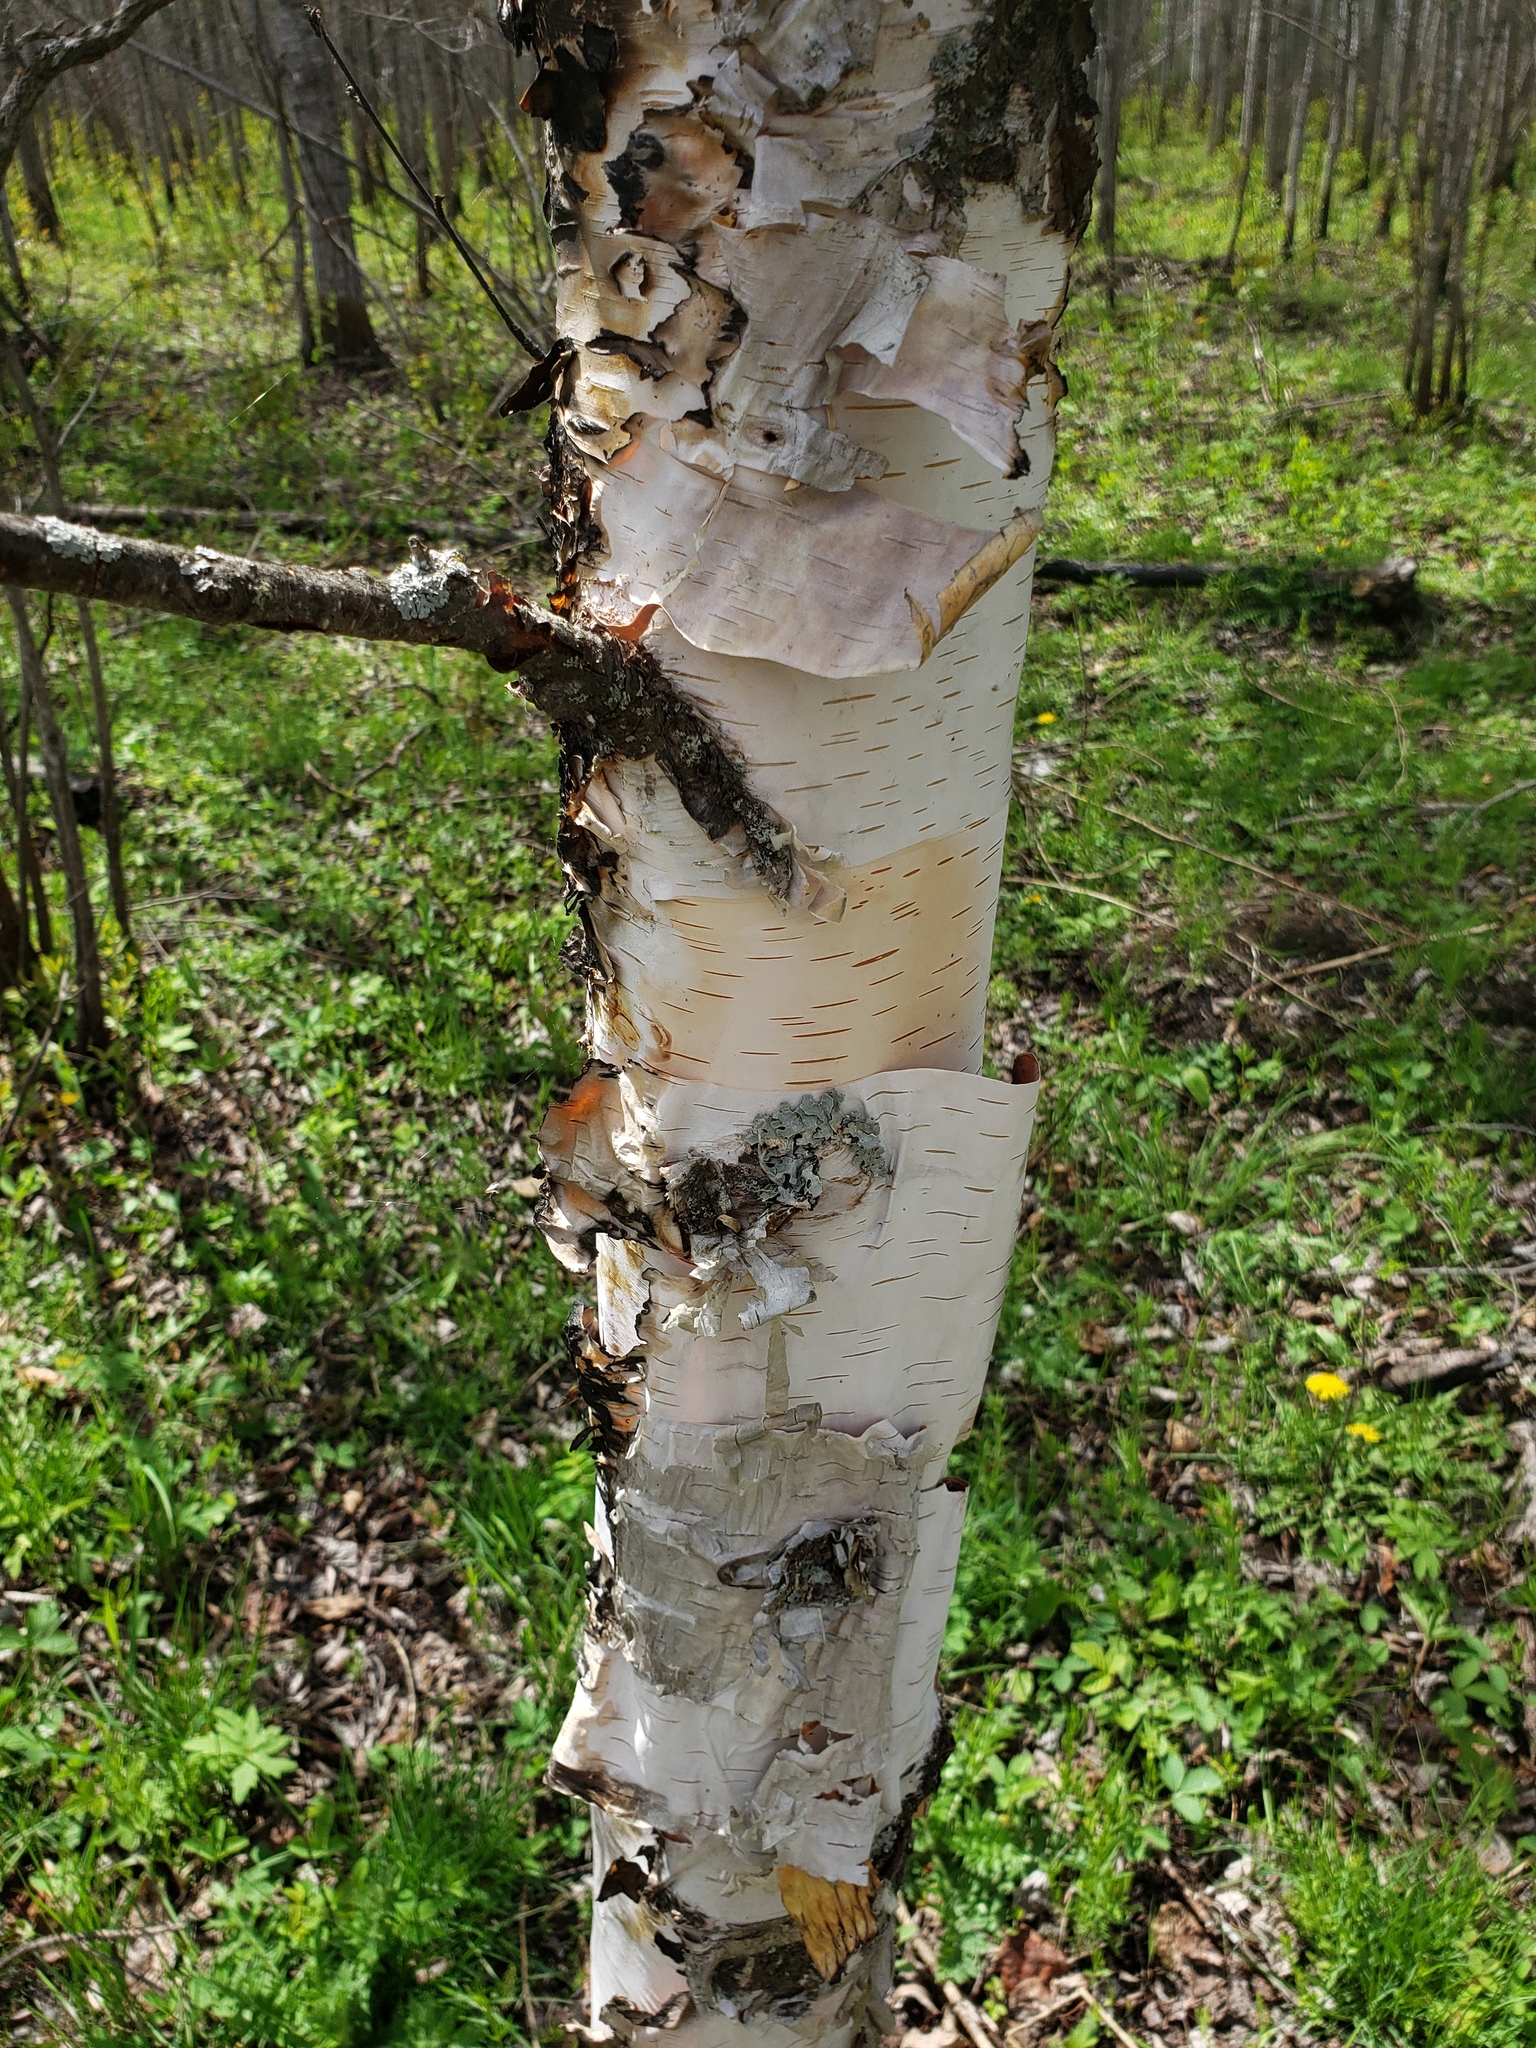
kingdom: Plantae
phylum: Tracheophyta
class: Magnoliopsida
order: Fagales
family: Betulaceae
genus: Betula
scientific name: Betula papyrifera
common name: Paper birch
